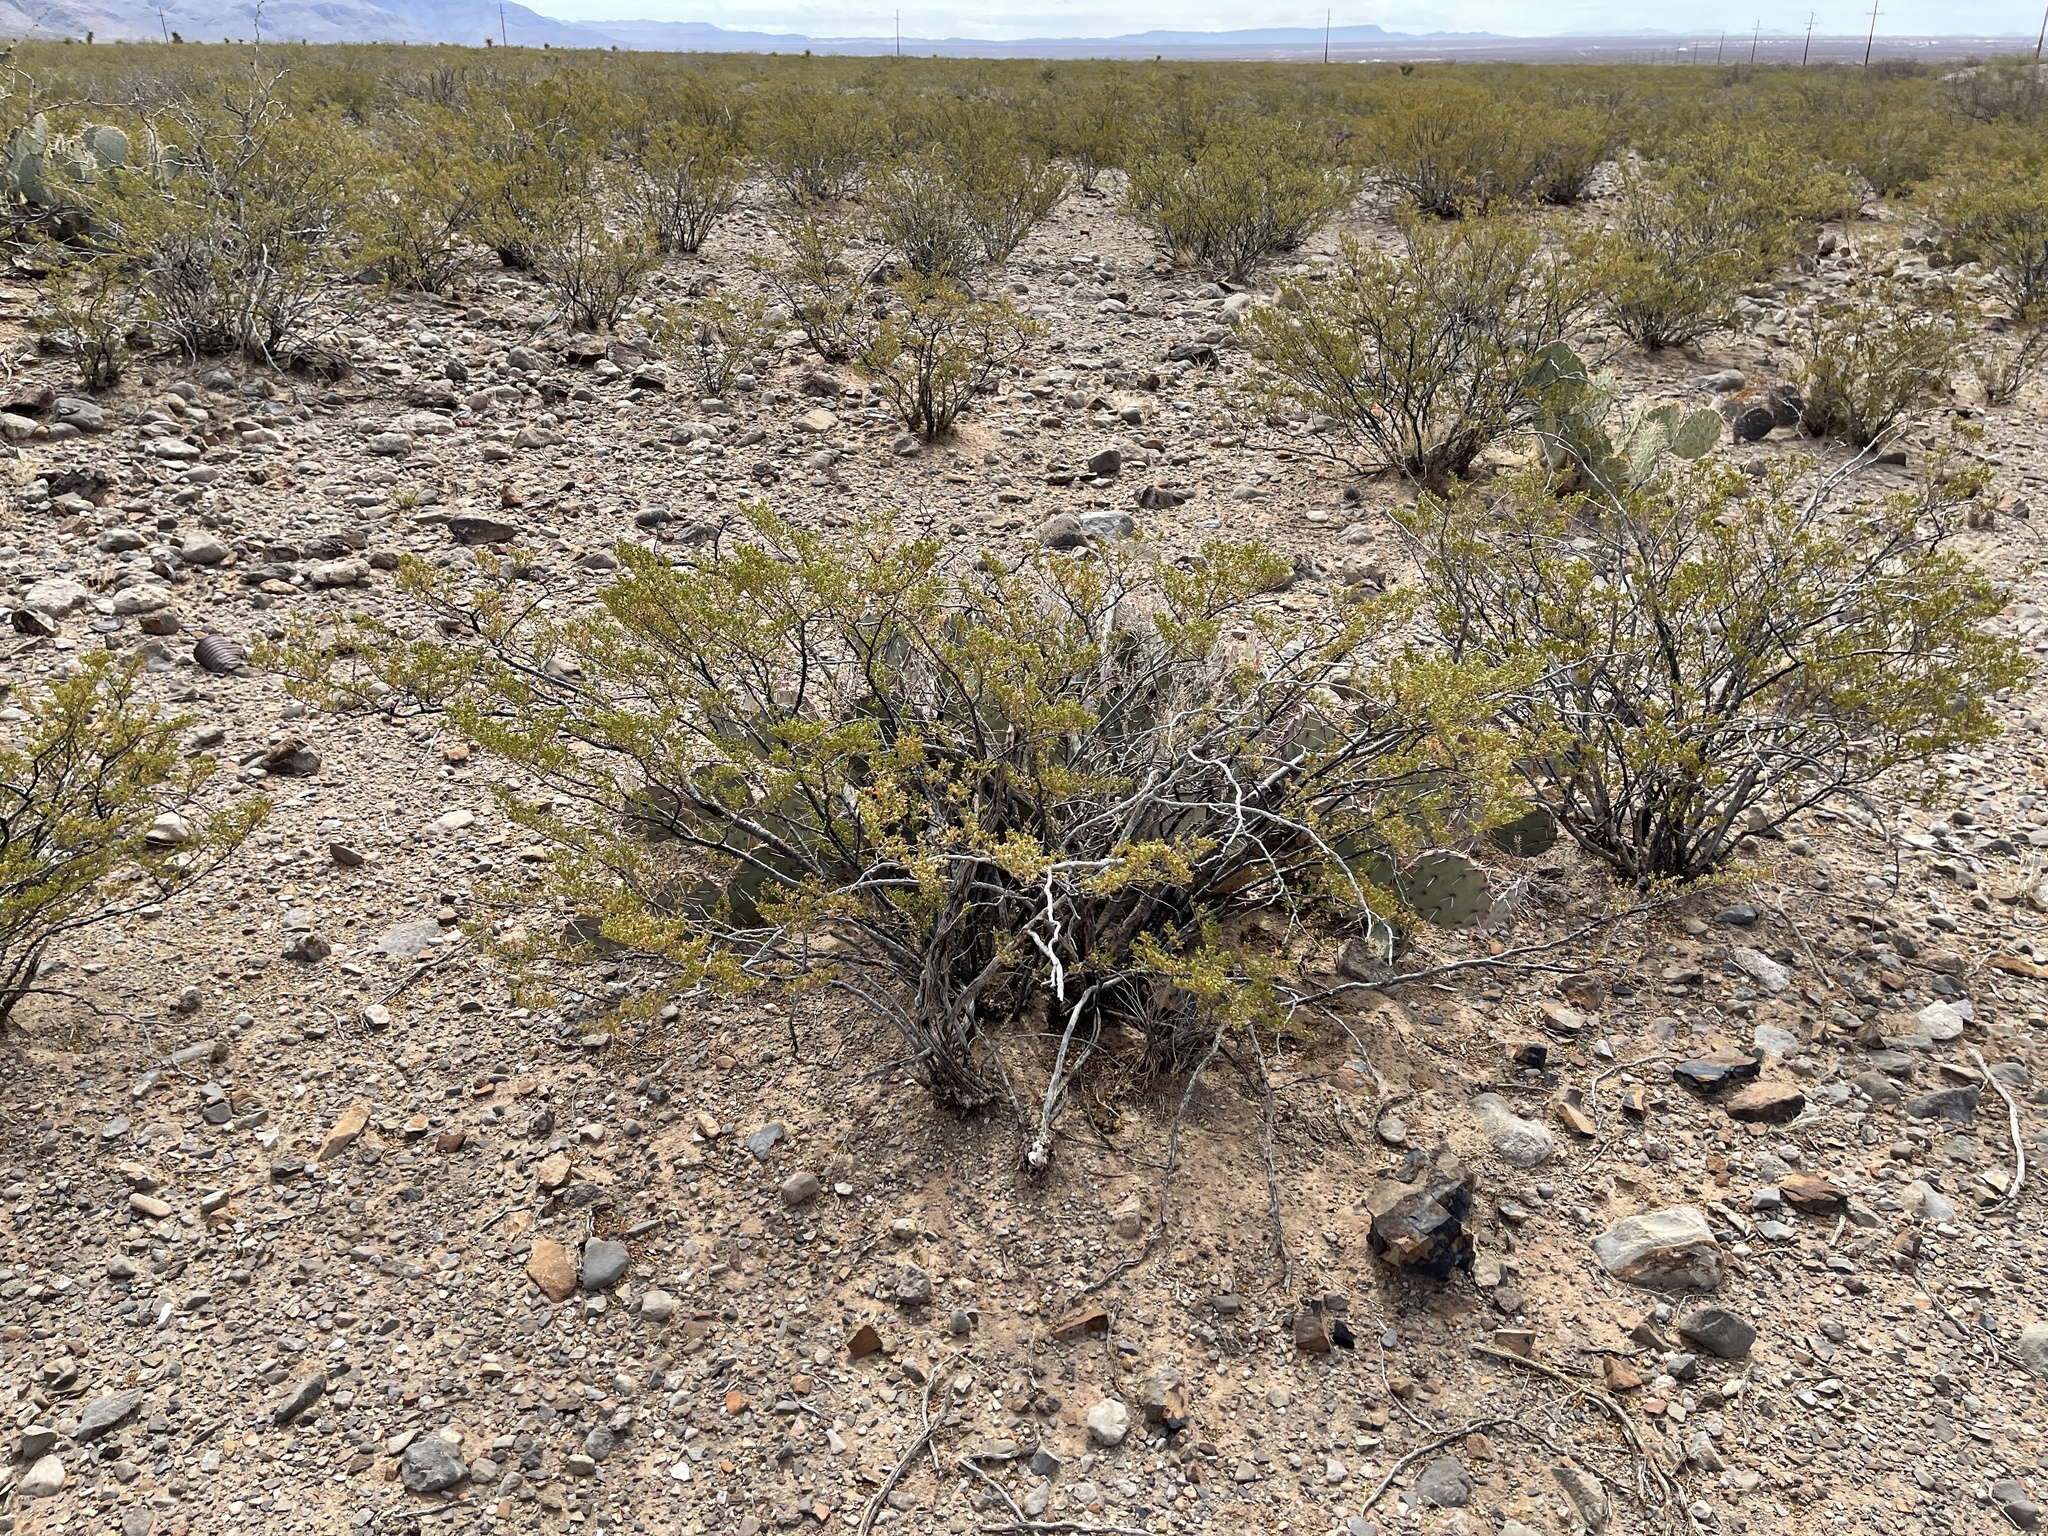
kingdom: Plantae
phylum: Tracheophyta
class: Magnoliopsida
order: Zygophyllales
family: Zygophyllaceae
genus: Larrea
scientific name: Larrea tridentata
